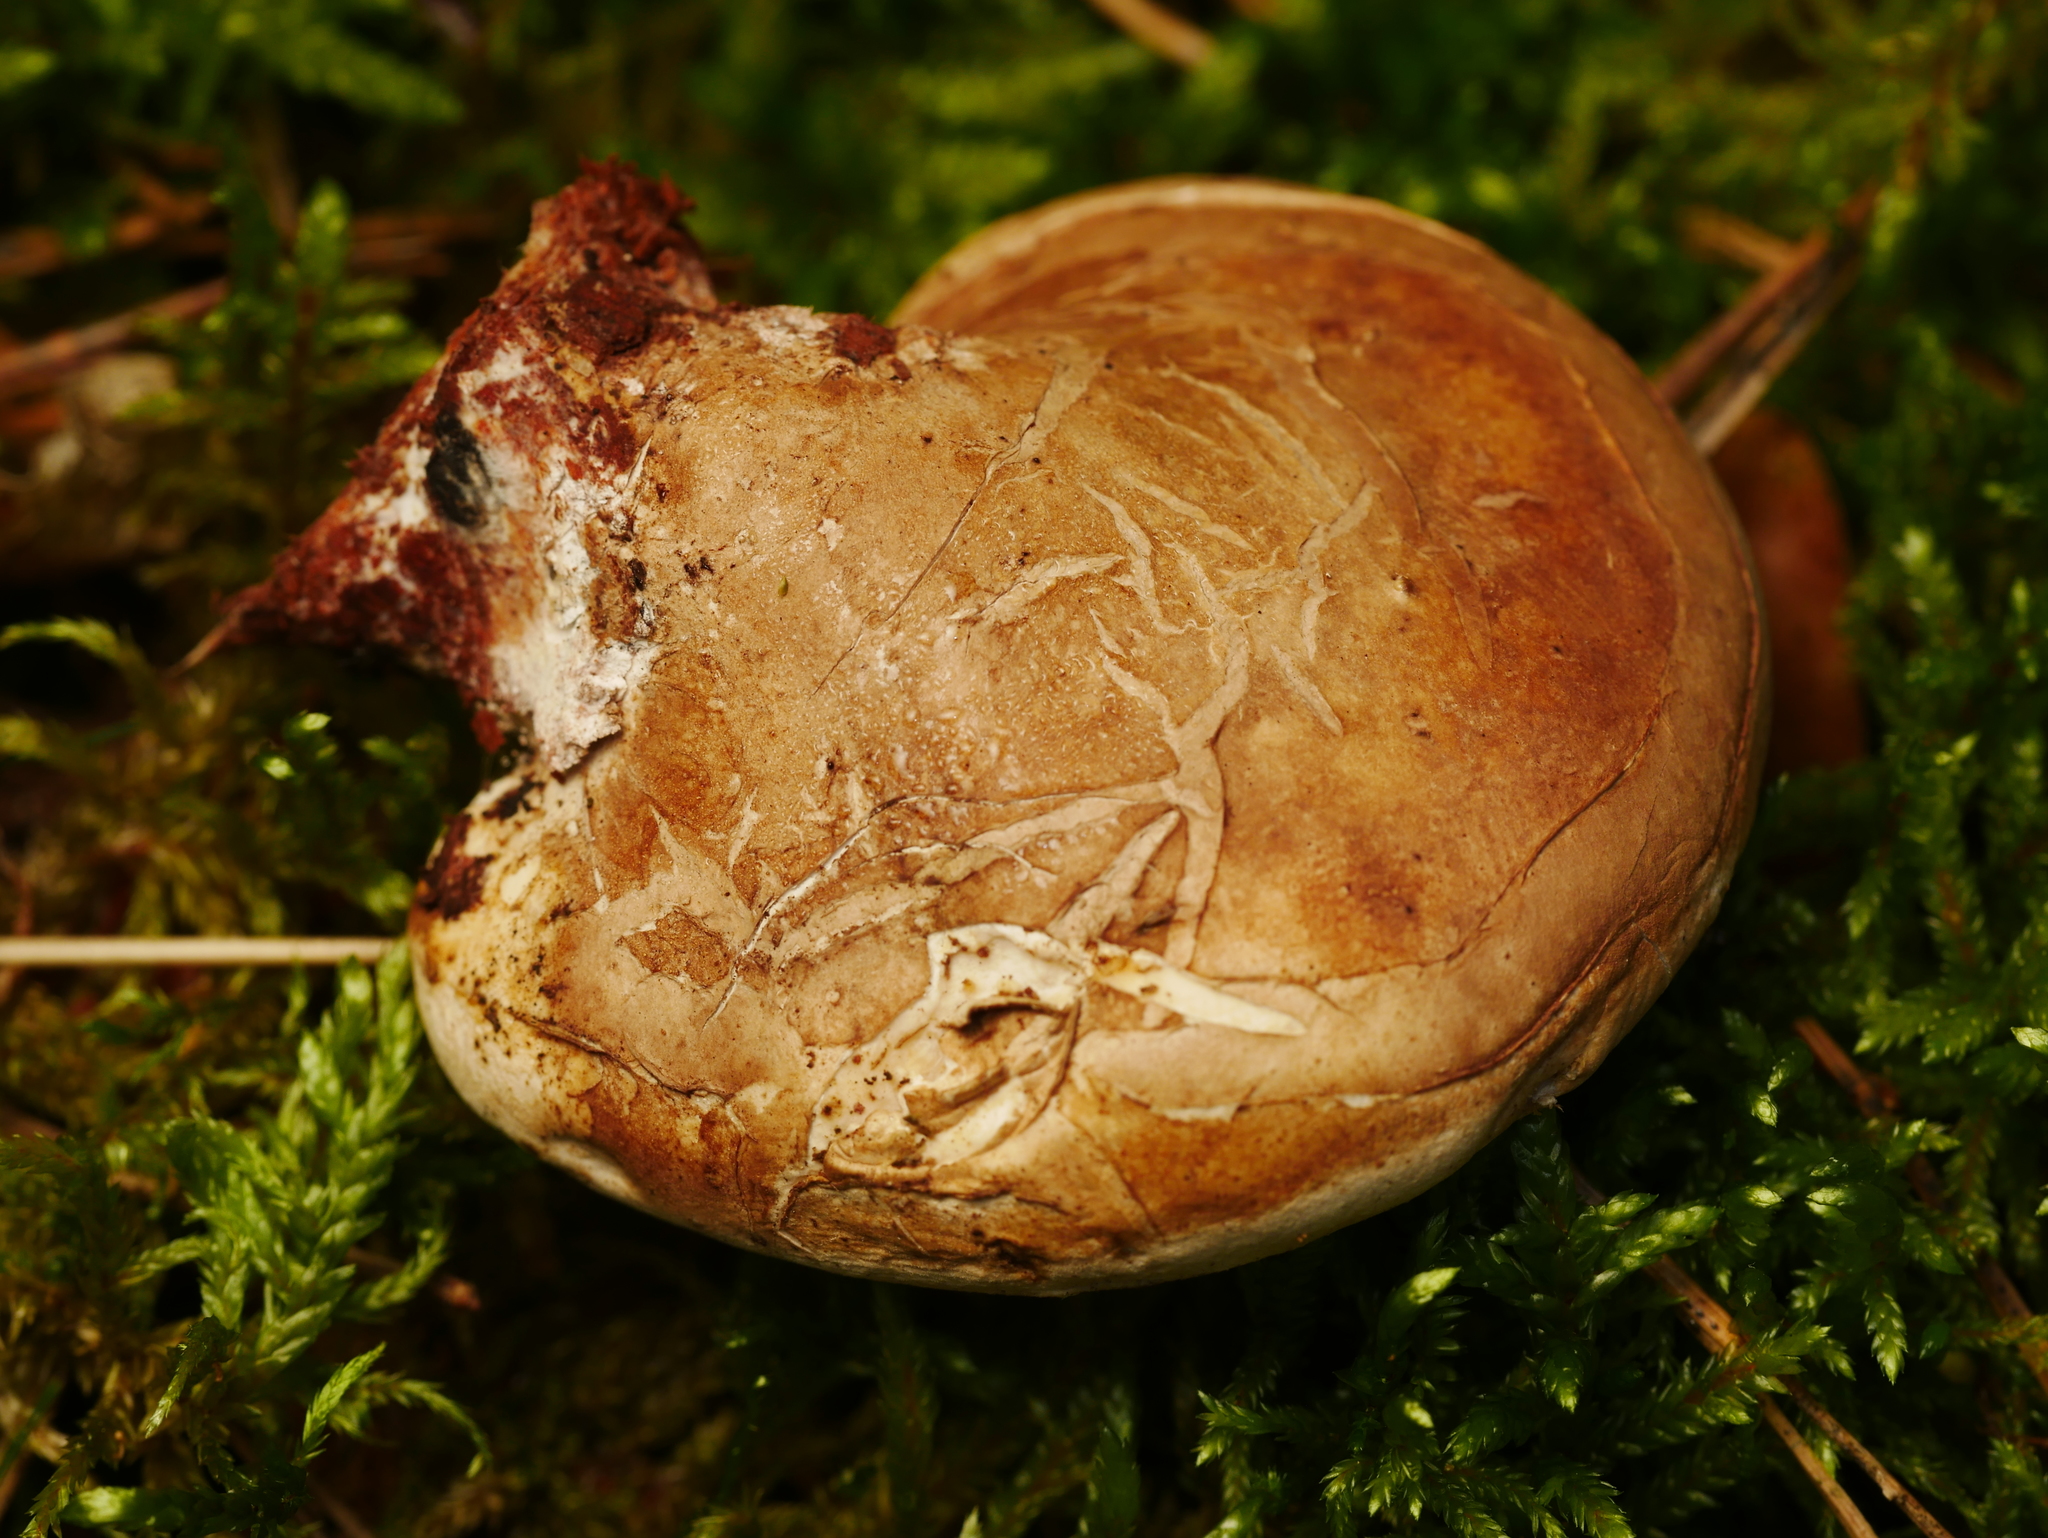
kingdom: Fungi
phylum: Basidiomycota
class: Agaricomycetes
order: Polyporales
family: Fomitopsidaceae
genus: Fomitopsis
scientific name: Fomitopsis betulina
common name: Birch polypore
